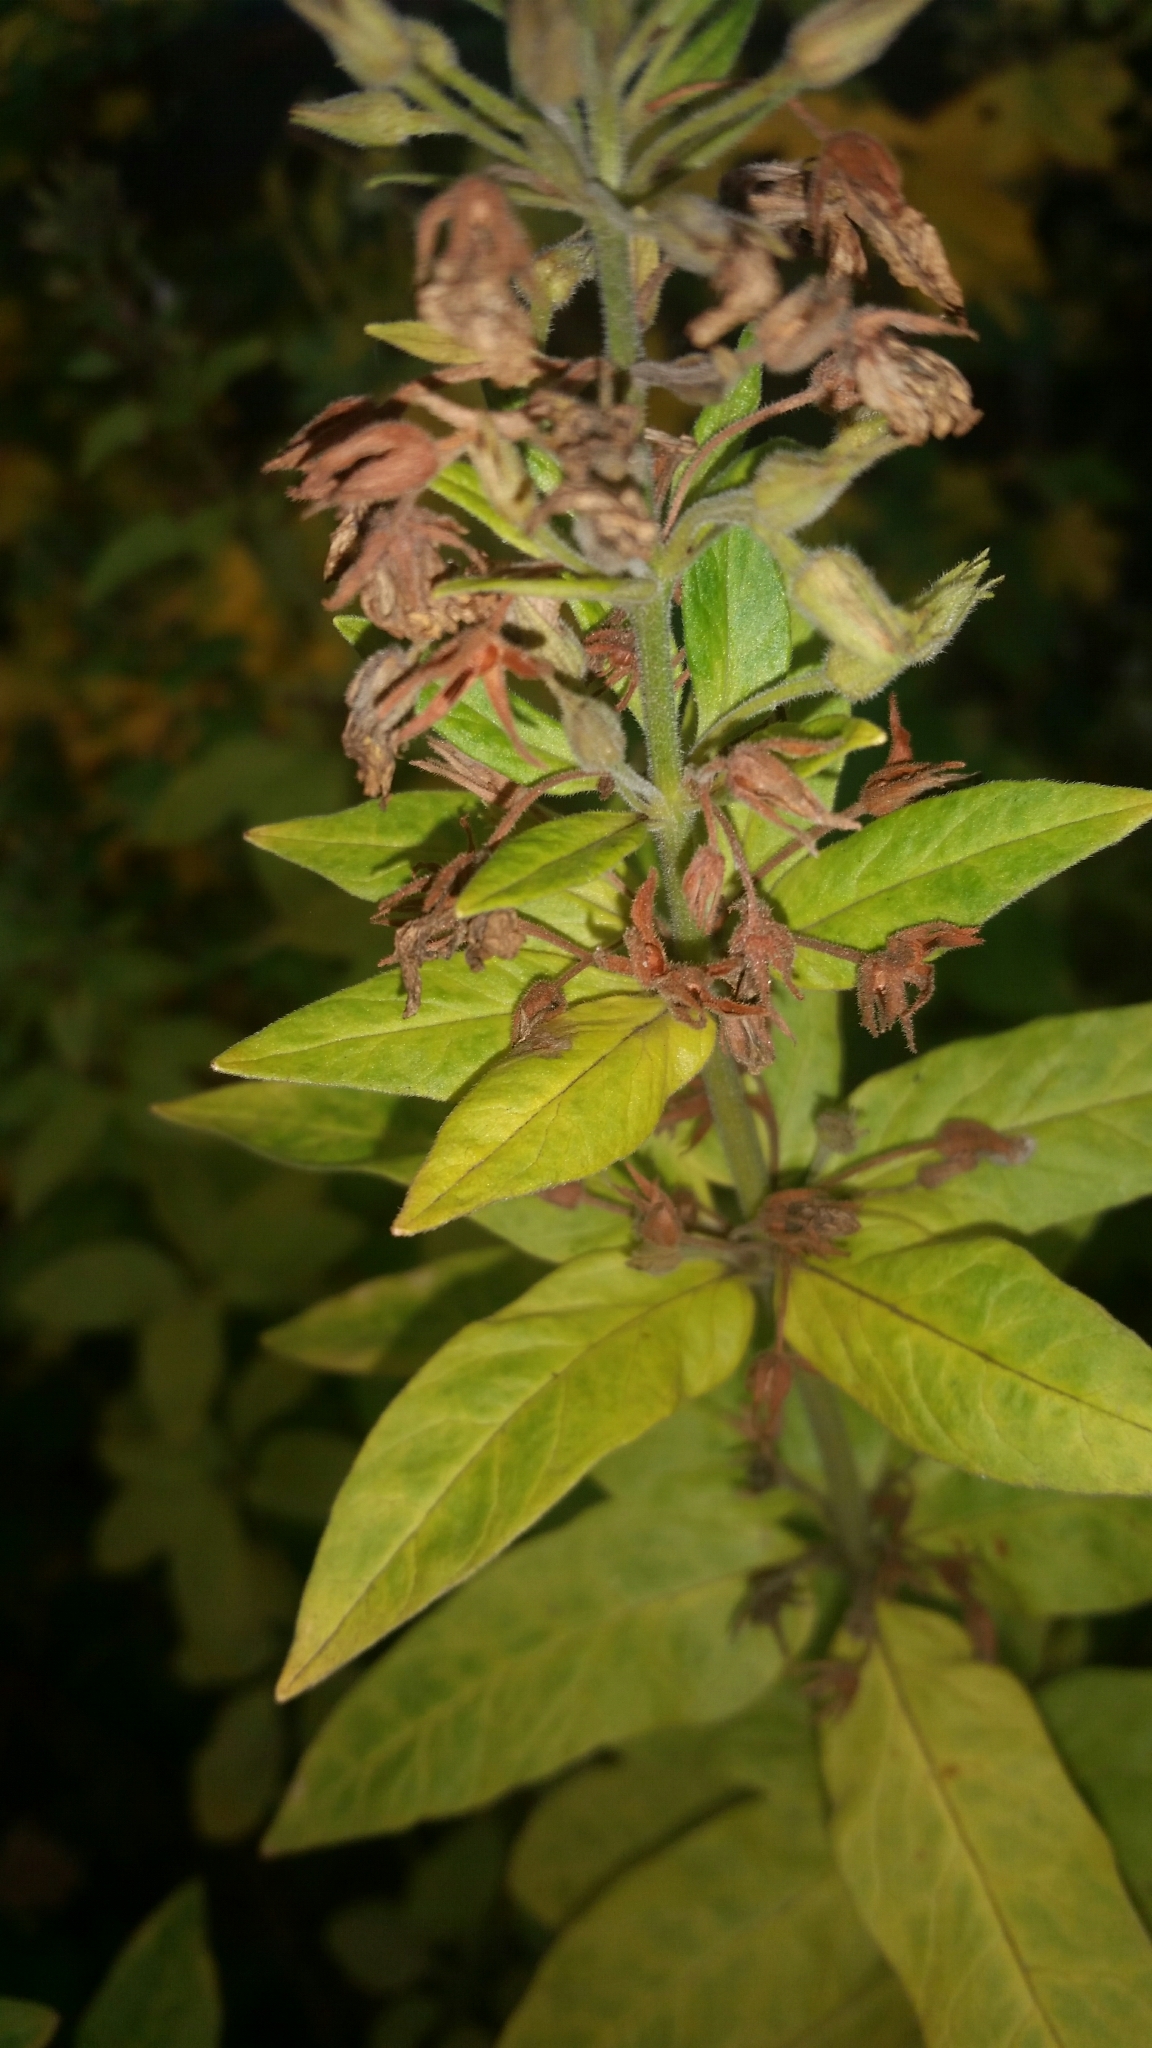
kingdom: Plantae
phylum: Tracheophyta
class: Magnoliopsida
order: Ericales
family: Primulaceae
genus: Lysimachia
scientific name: Lysimachia punctata
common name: Dotted loosestrife
